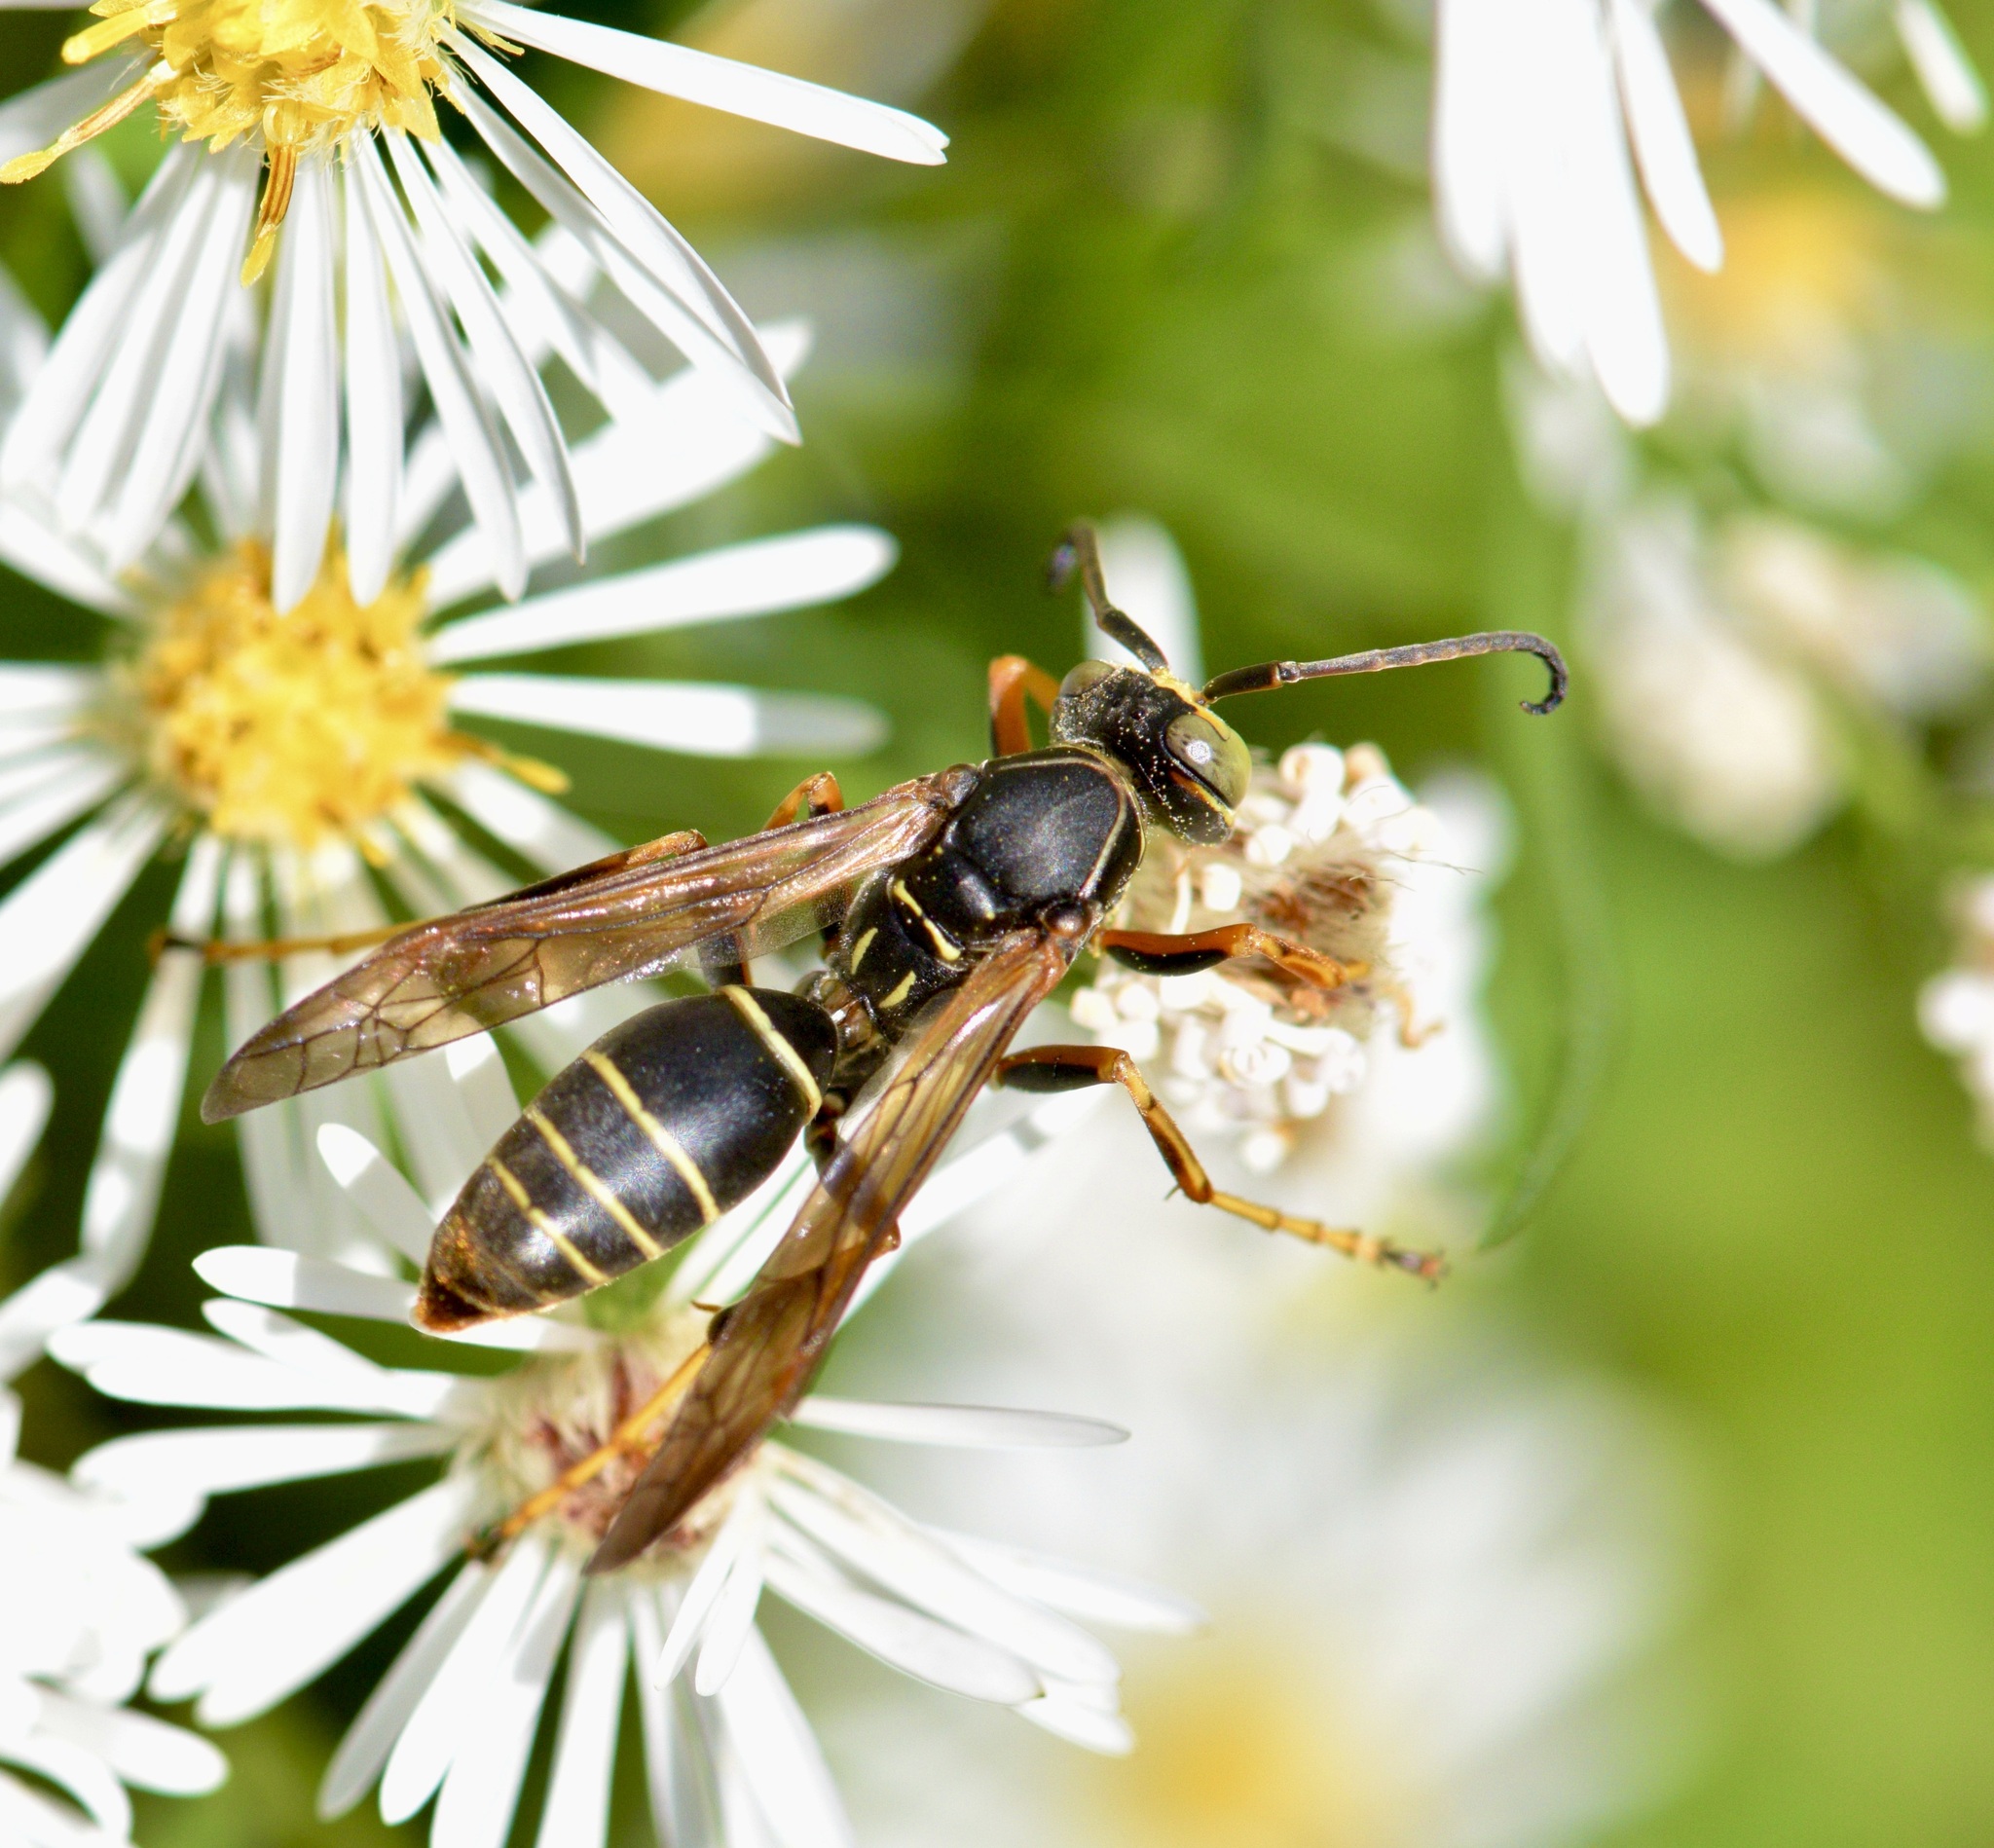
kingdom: Animalia
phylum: Arthropoda
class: Insecta
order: Hymenoptera
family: Eumenidae
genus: Polistes
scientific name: Polistes fuscatus
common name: Dark paper wasp
